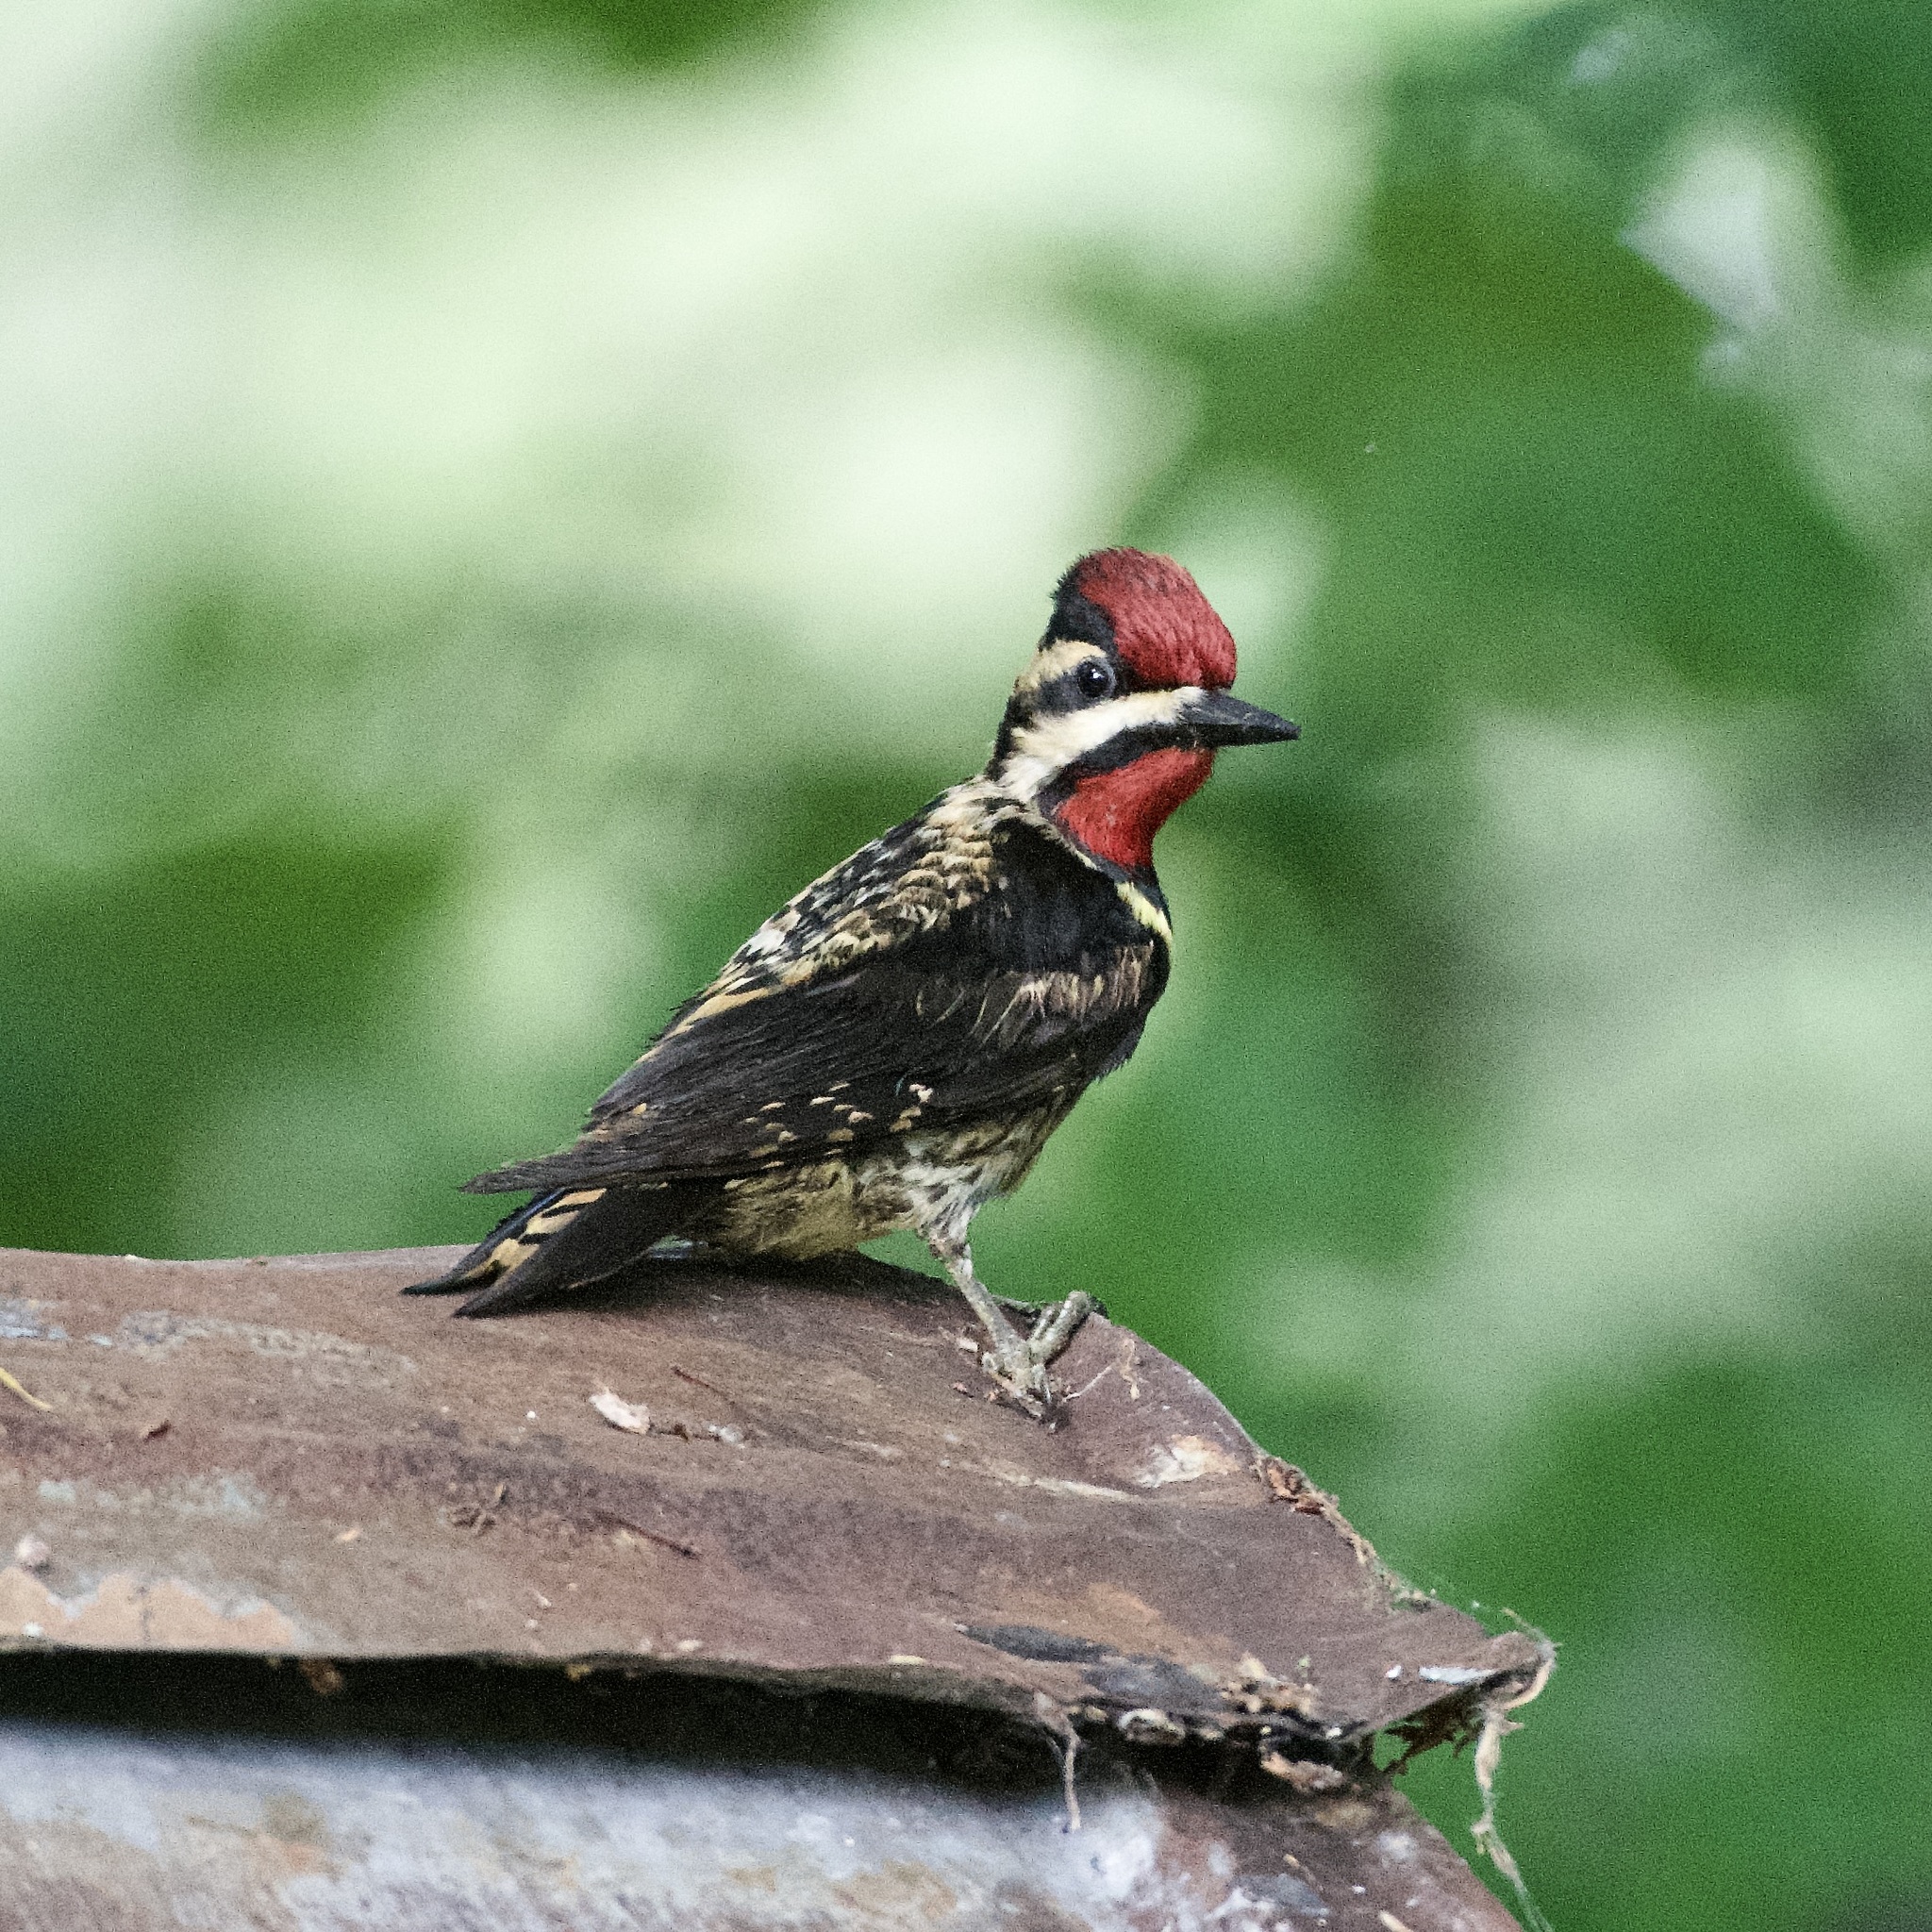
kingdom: Animalia
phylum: Chordata
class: Aves
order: Piciformes
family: Picidae
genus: Sphyrapicus
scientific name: Sphyrapicus varius
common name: Yellow-bellied sapsucker
